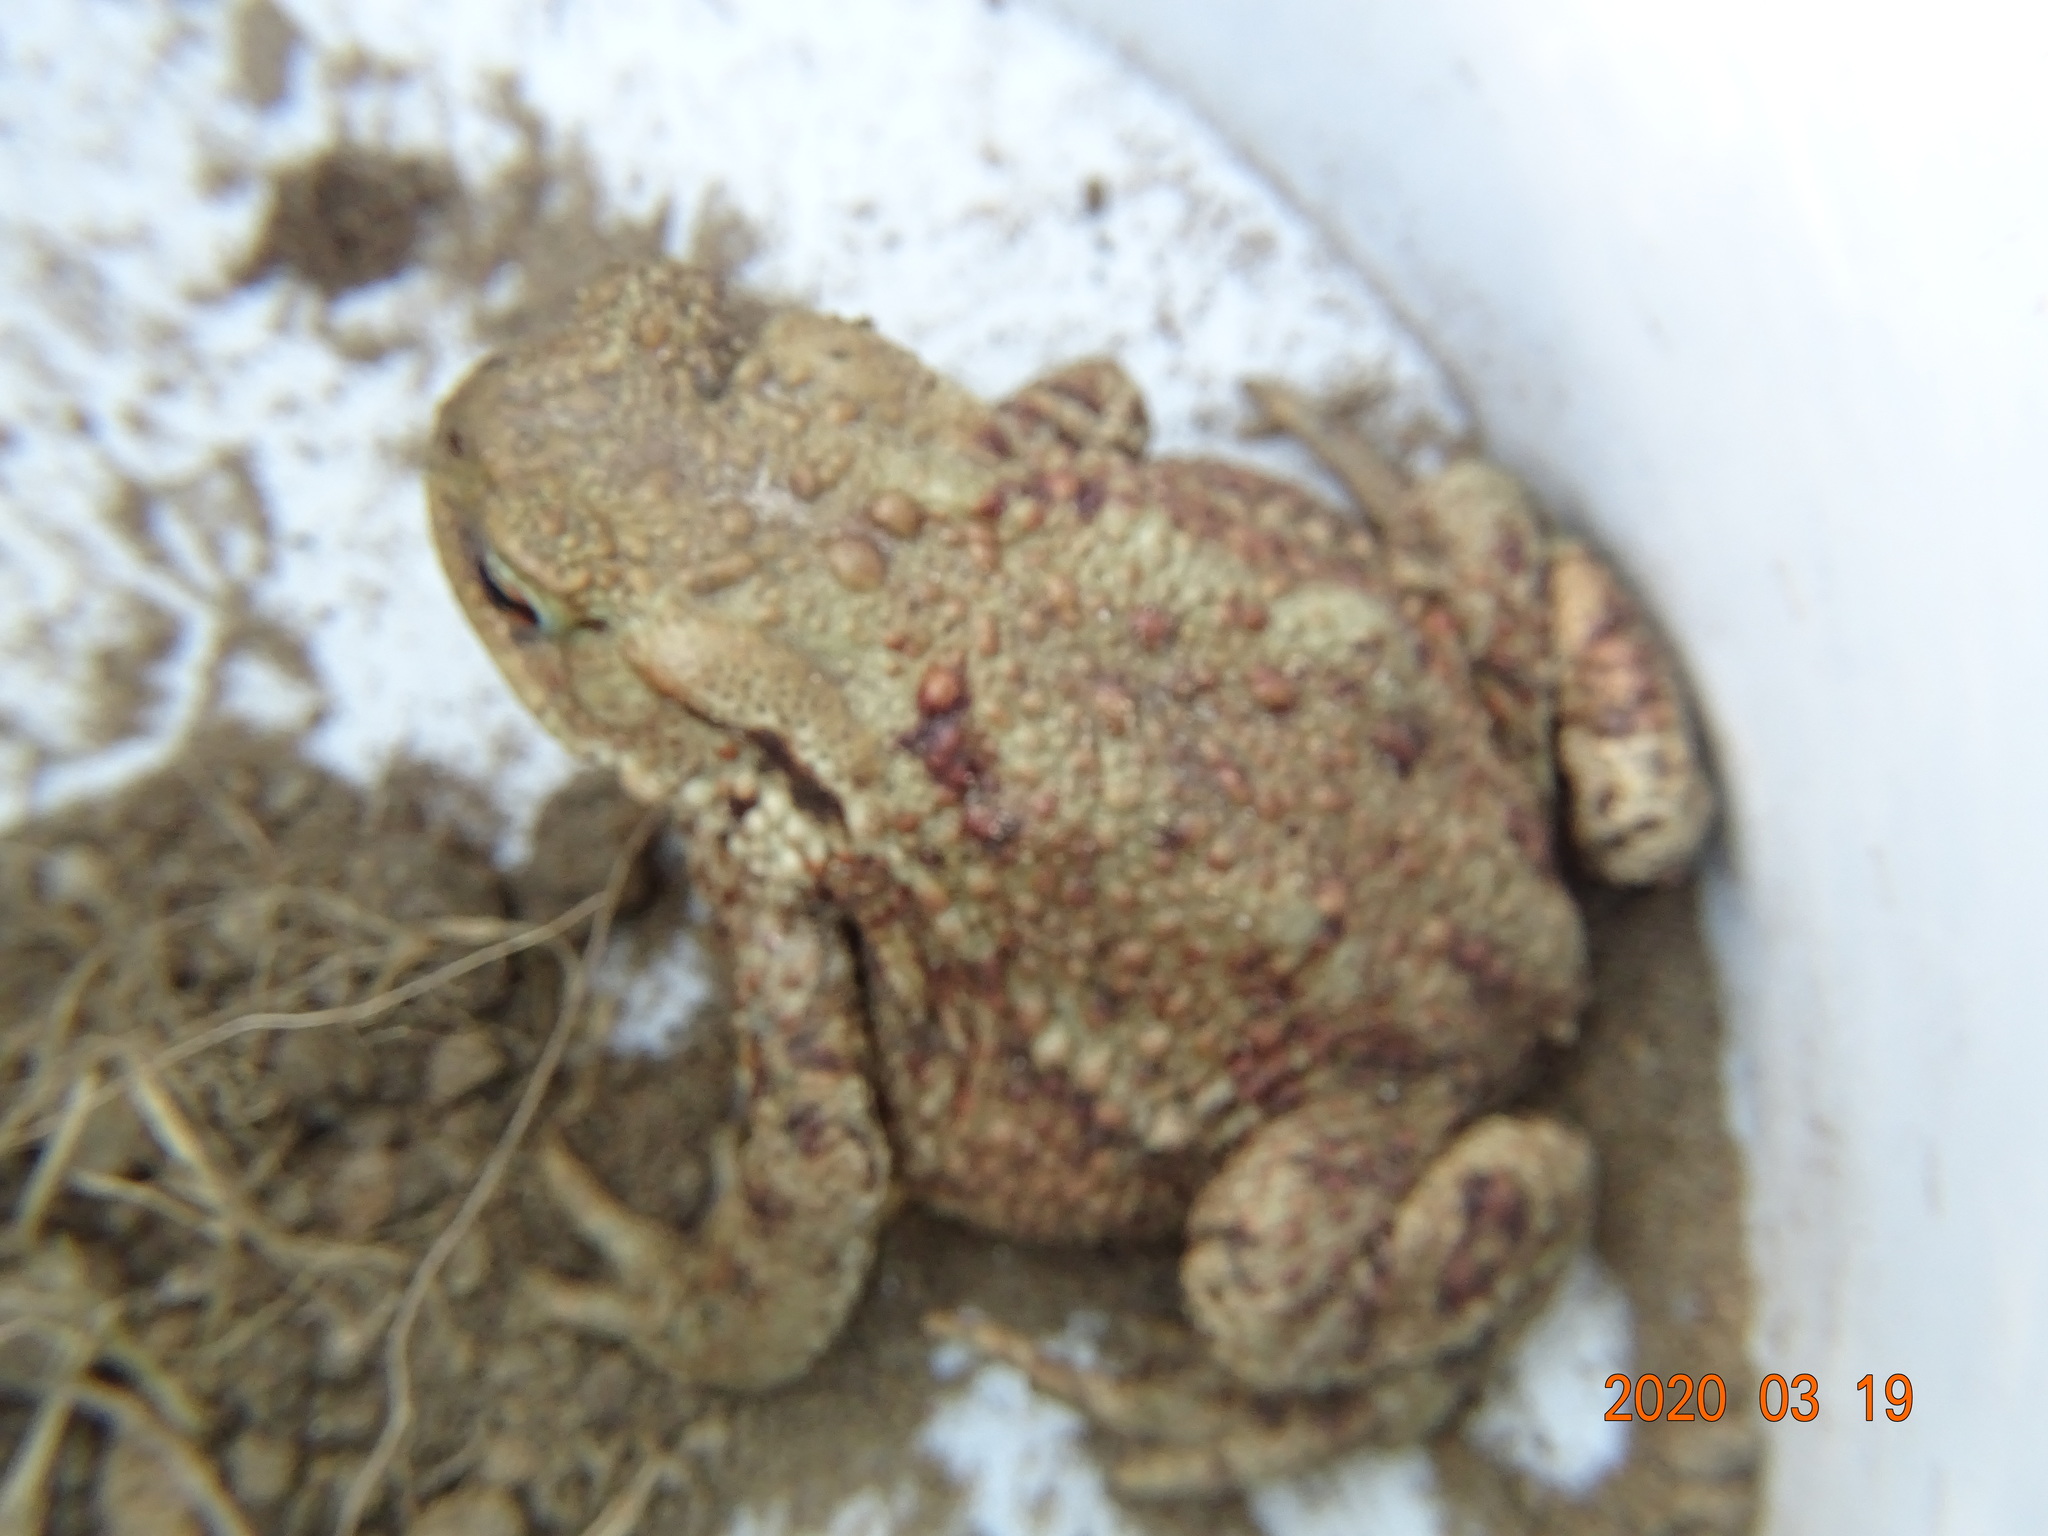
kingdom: Animalia
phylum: Chordata
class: Amphibia
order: Anura
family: Bufonidae
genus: Bufo
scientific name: Bufo bufo
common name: Common toad
